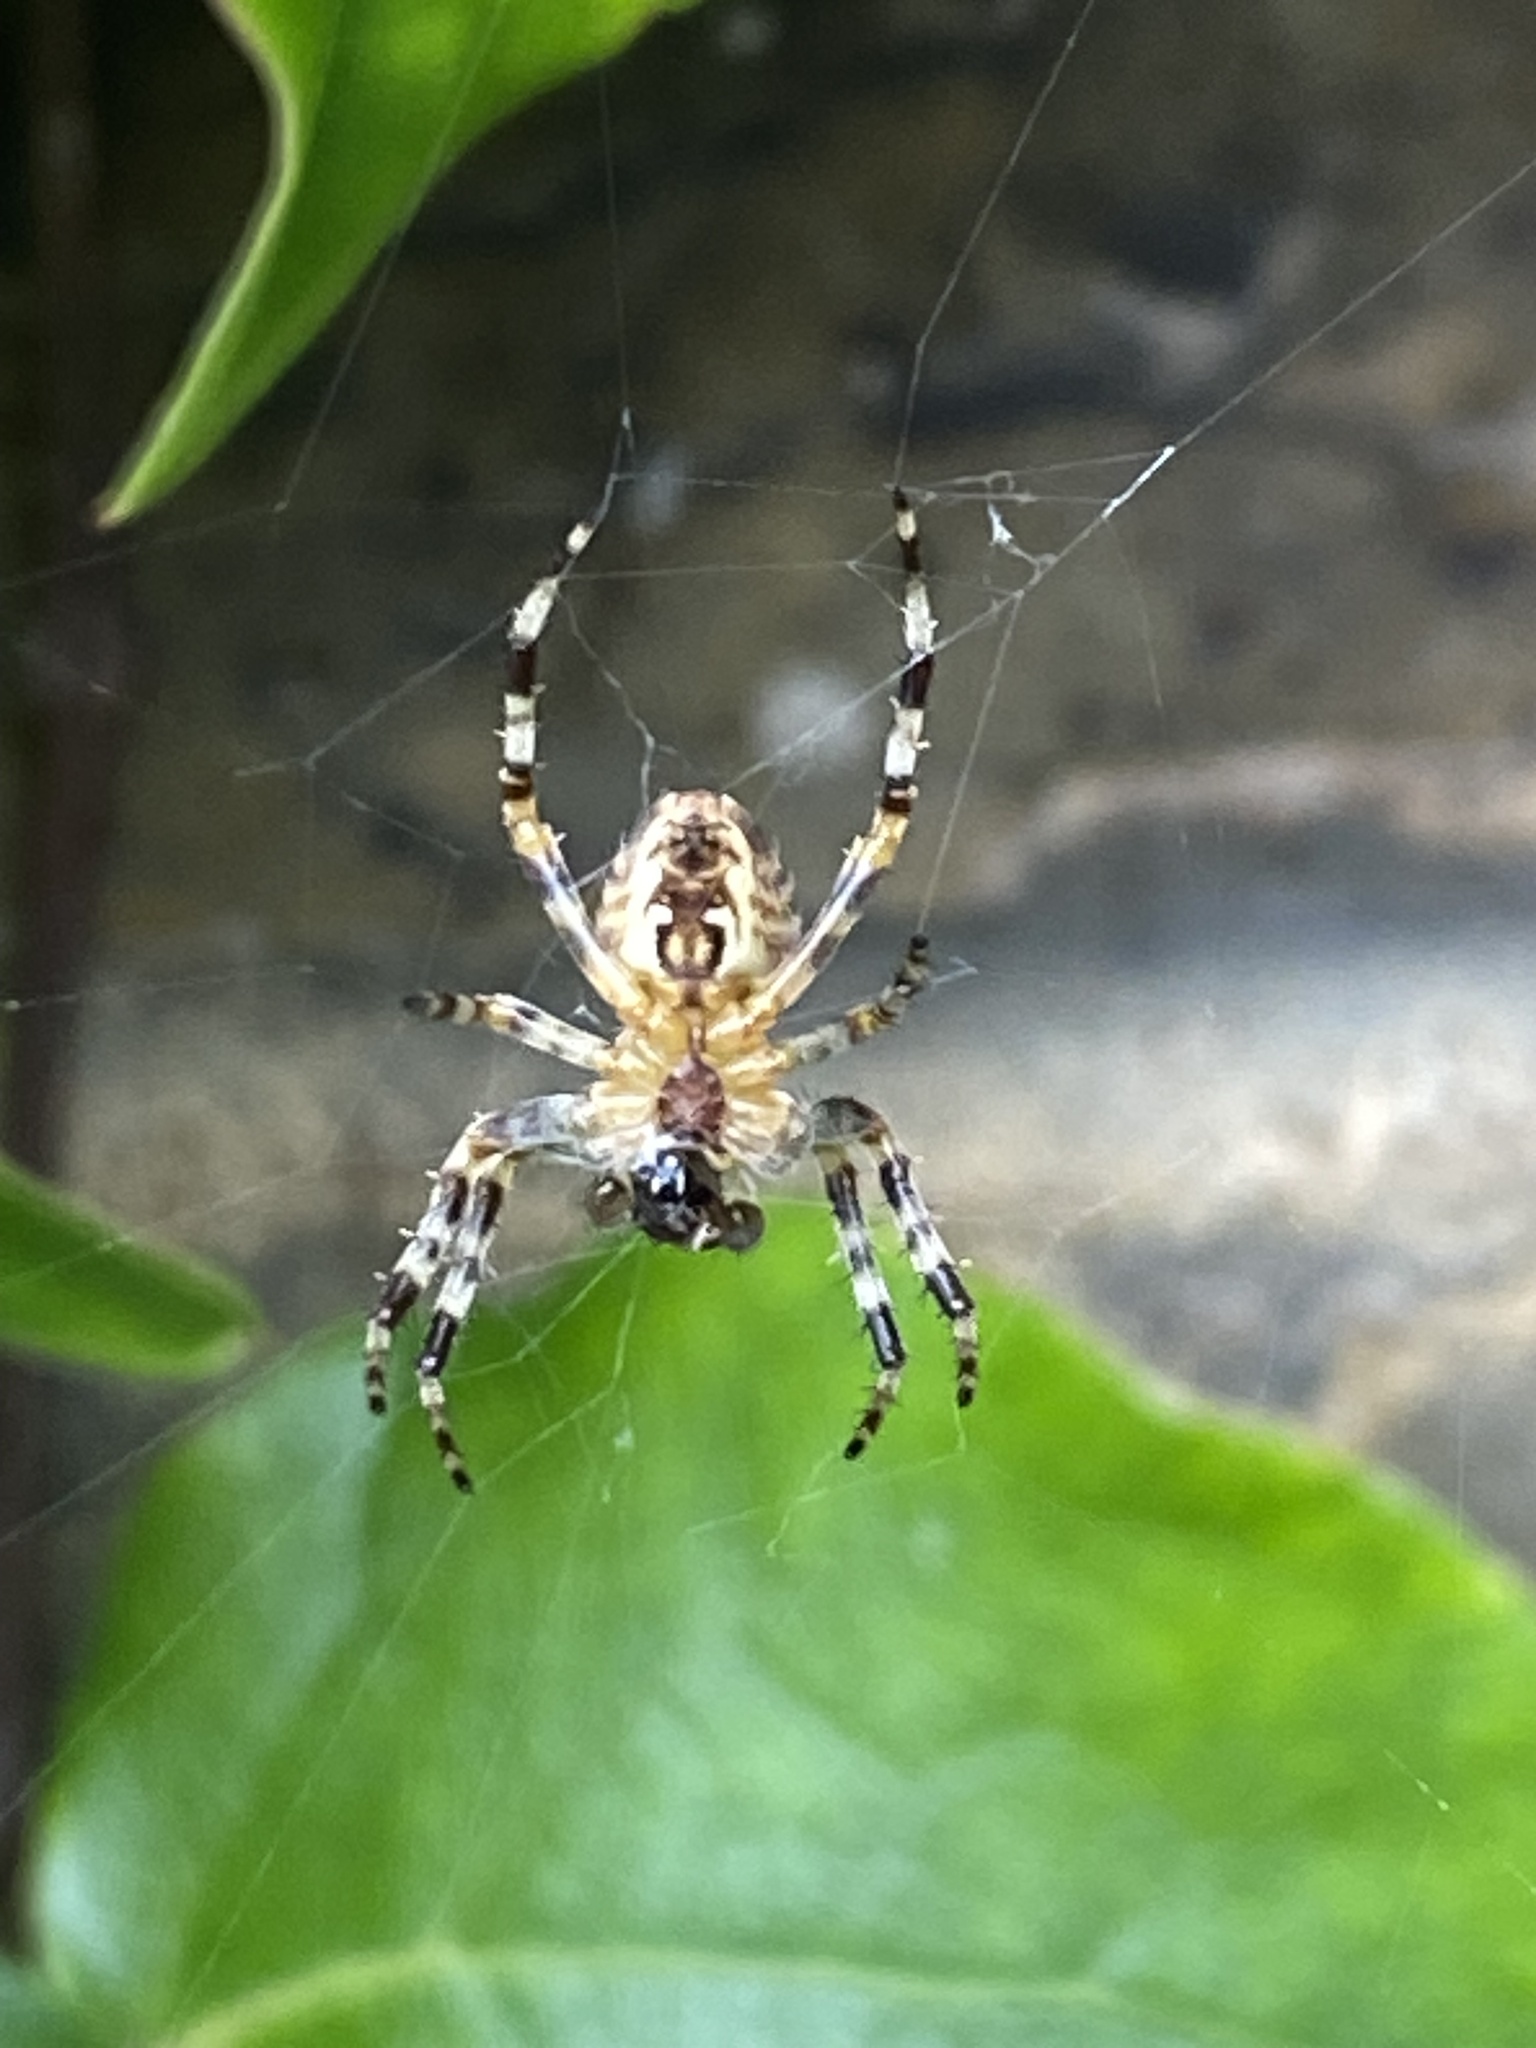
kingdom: Animalia
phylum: Arthropoda
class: Arachnida
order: Araneae
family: Araneidae
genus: Araneus
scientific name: Araneus diadematus
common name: Cross orbweaver
